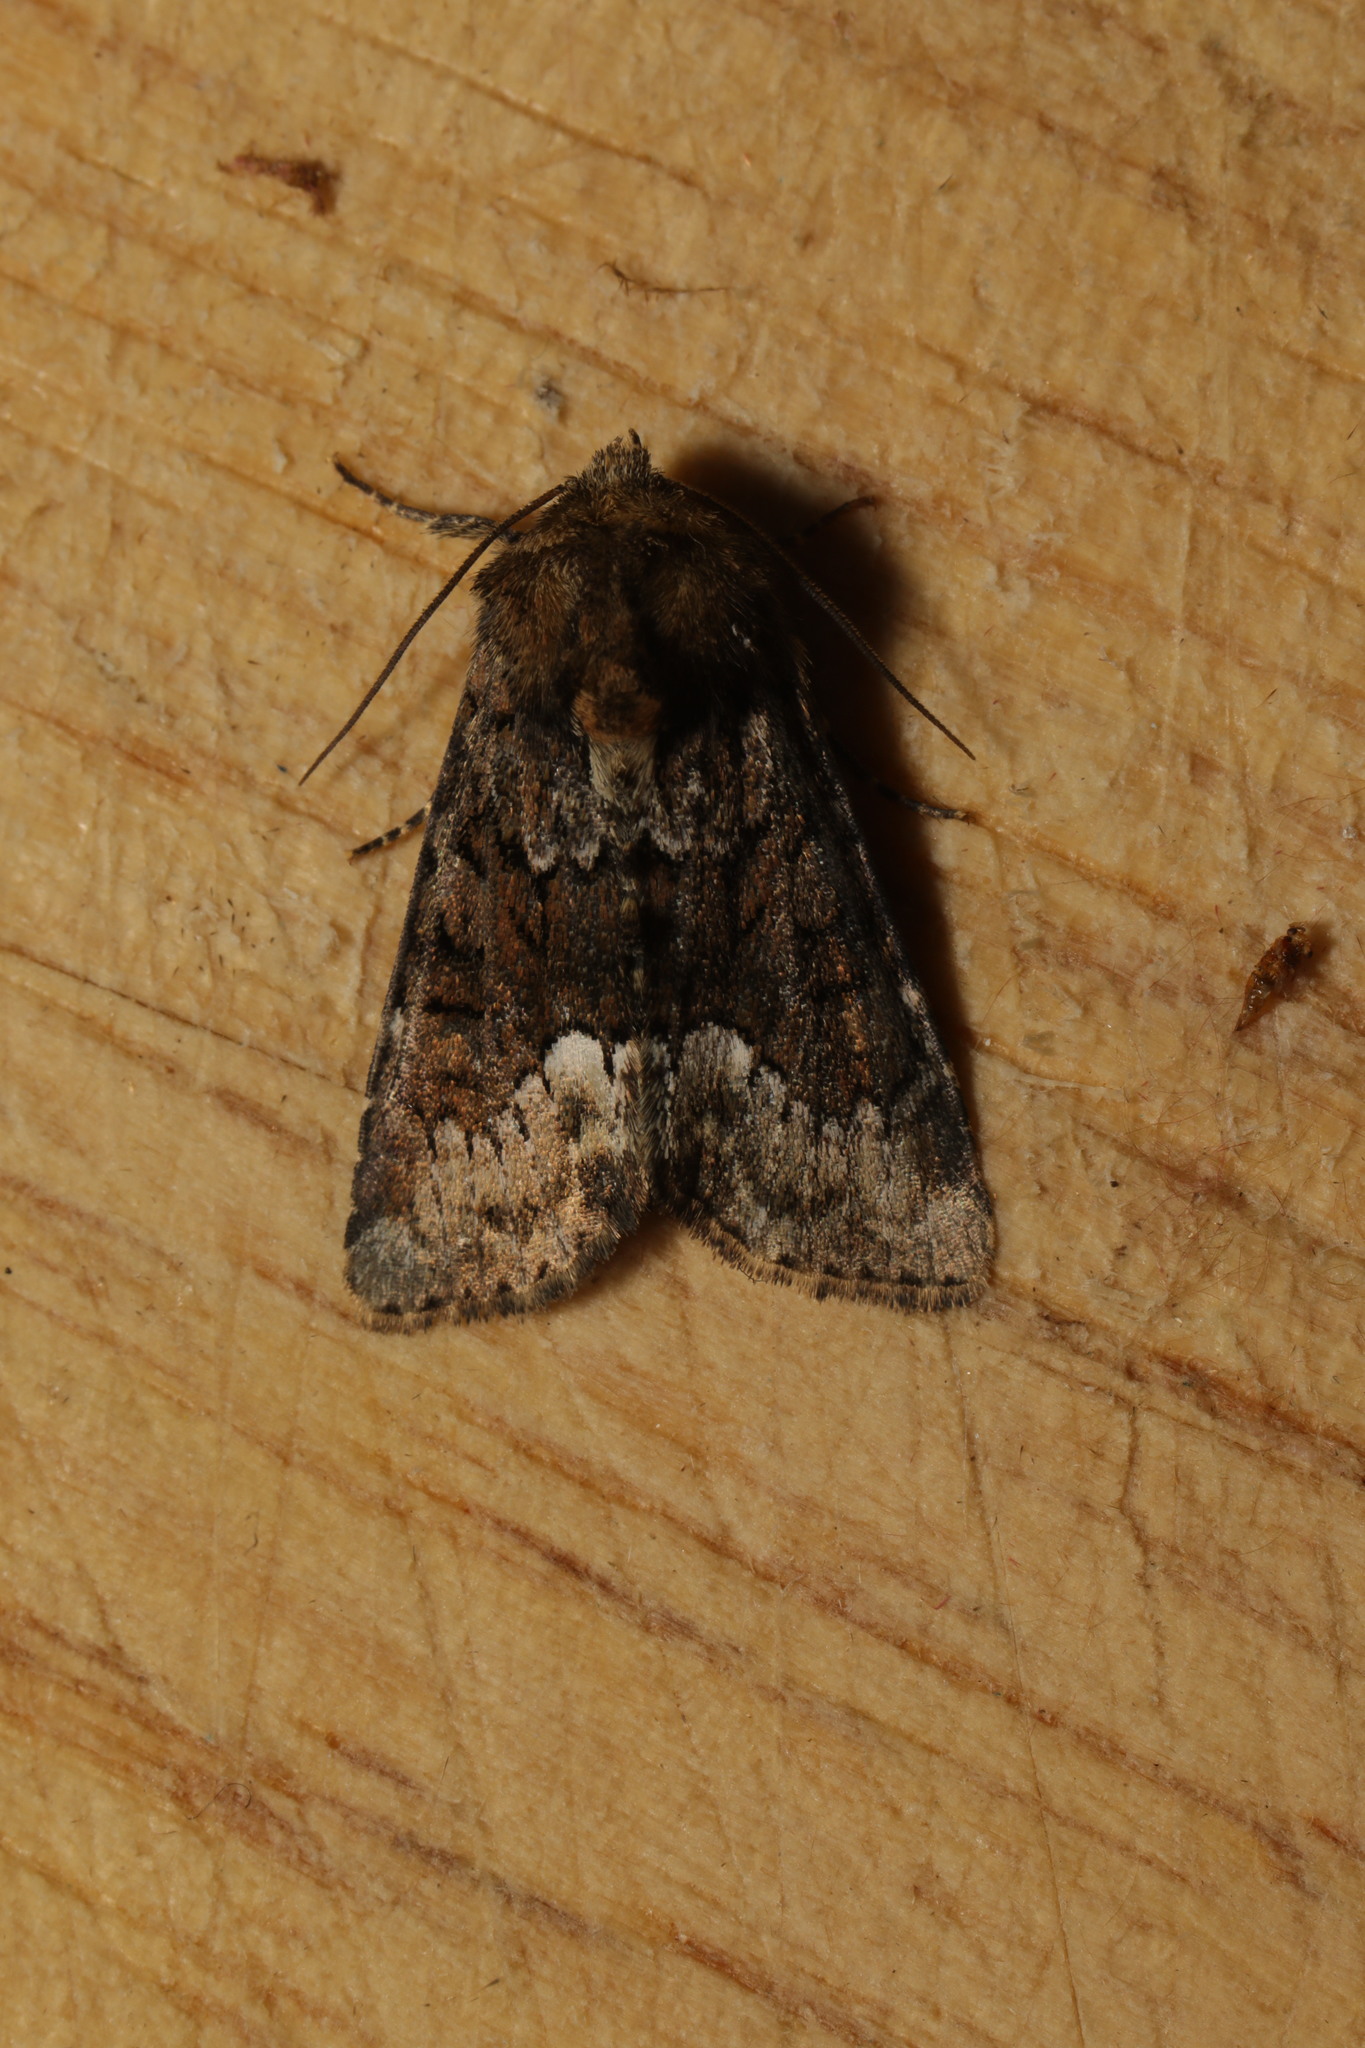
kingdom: Animalia
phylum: Arthropoda
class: Insecta
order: Lepidoptera
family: Noctuidae
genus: Oligia
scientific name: Oligia strigilis
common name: Marbled minor
